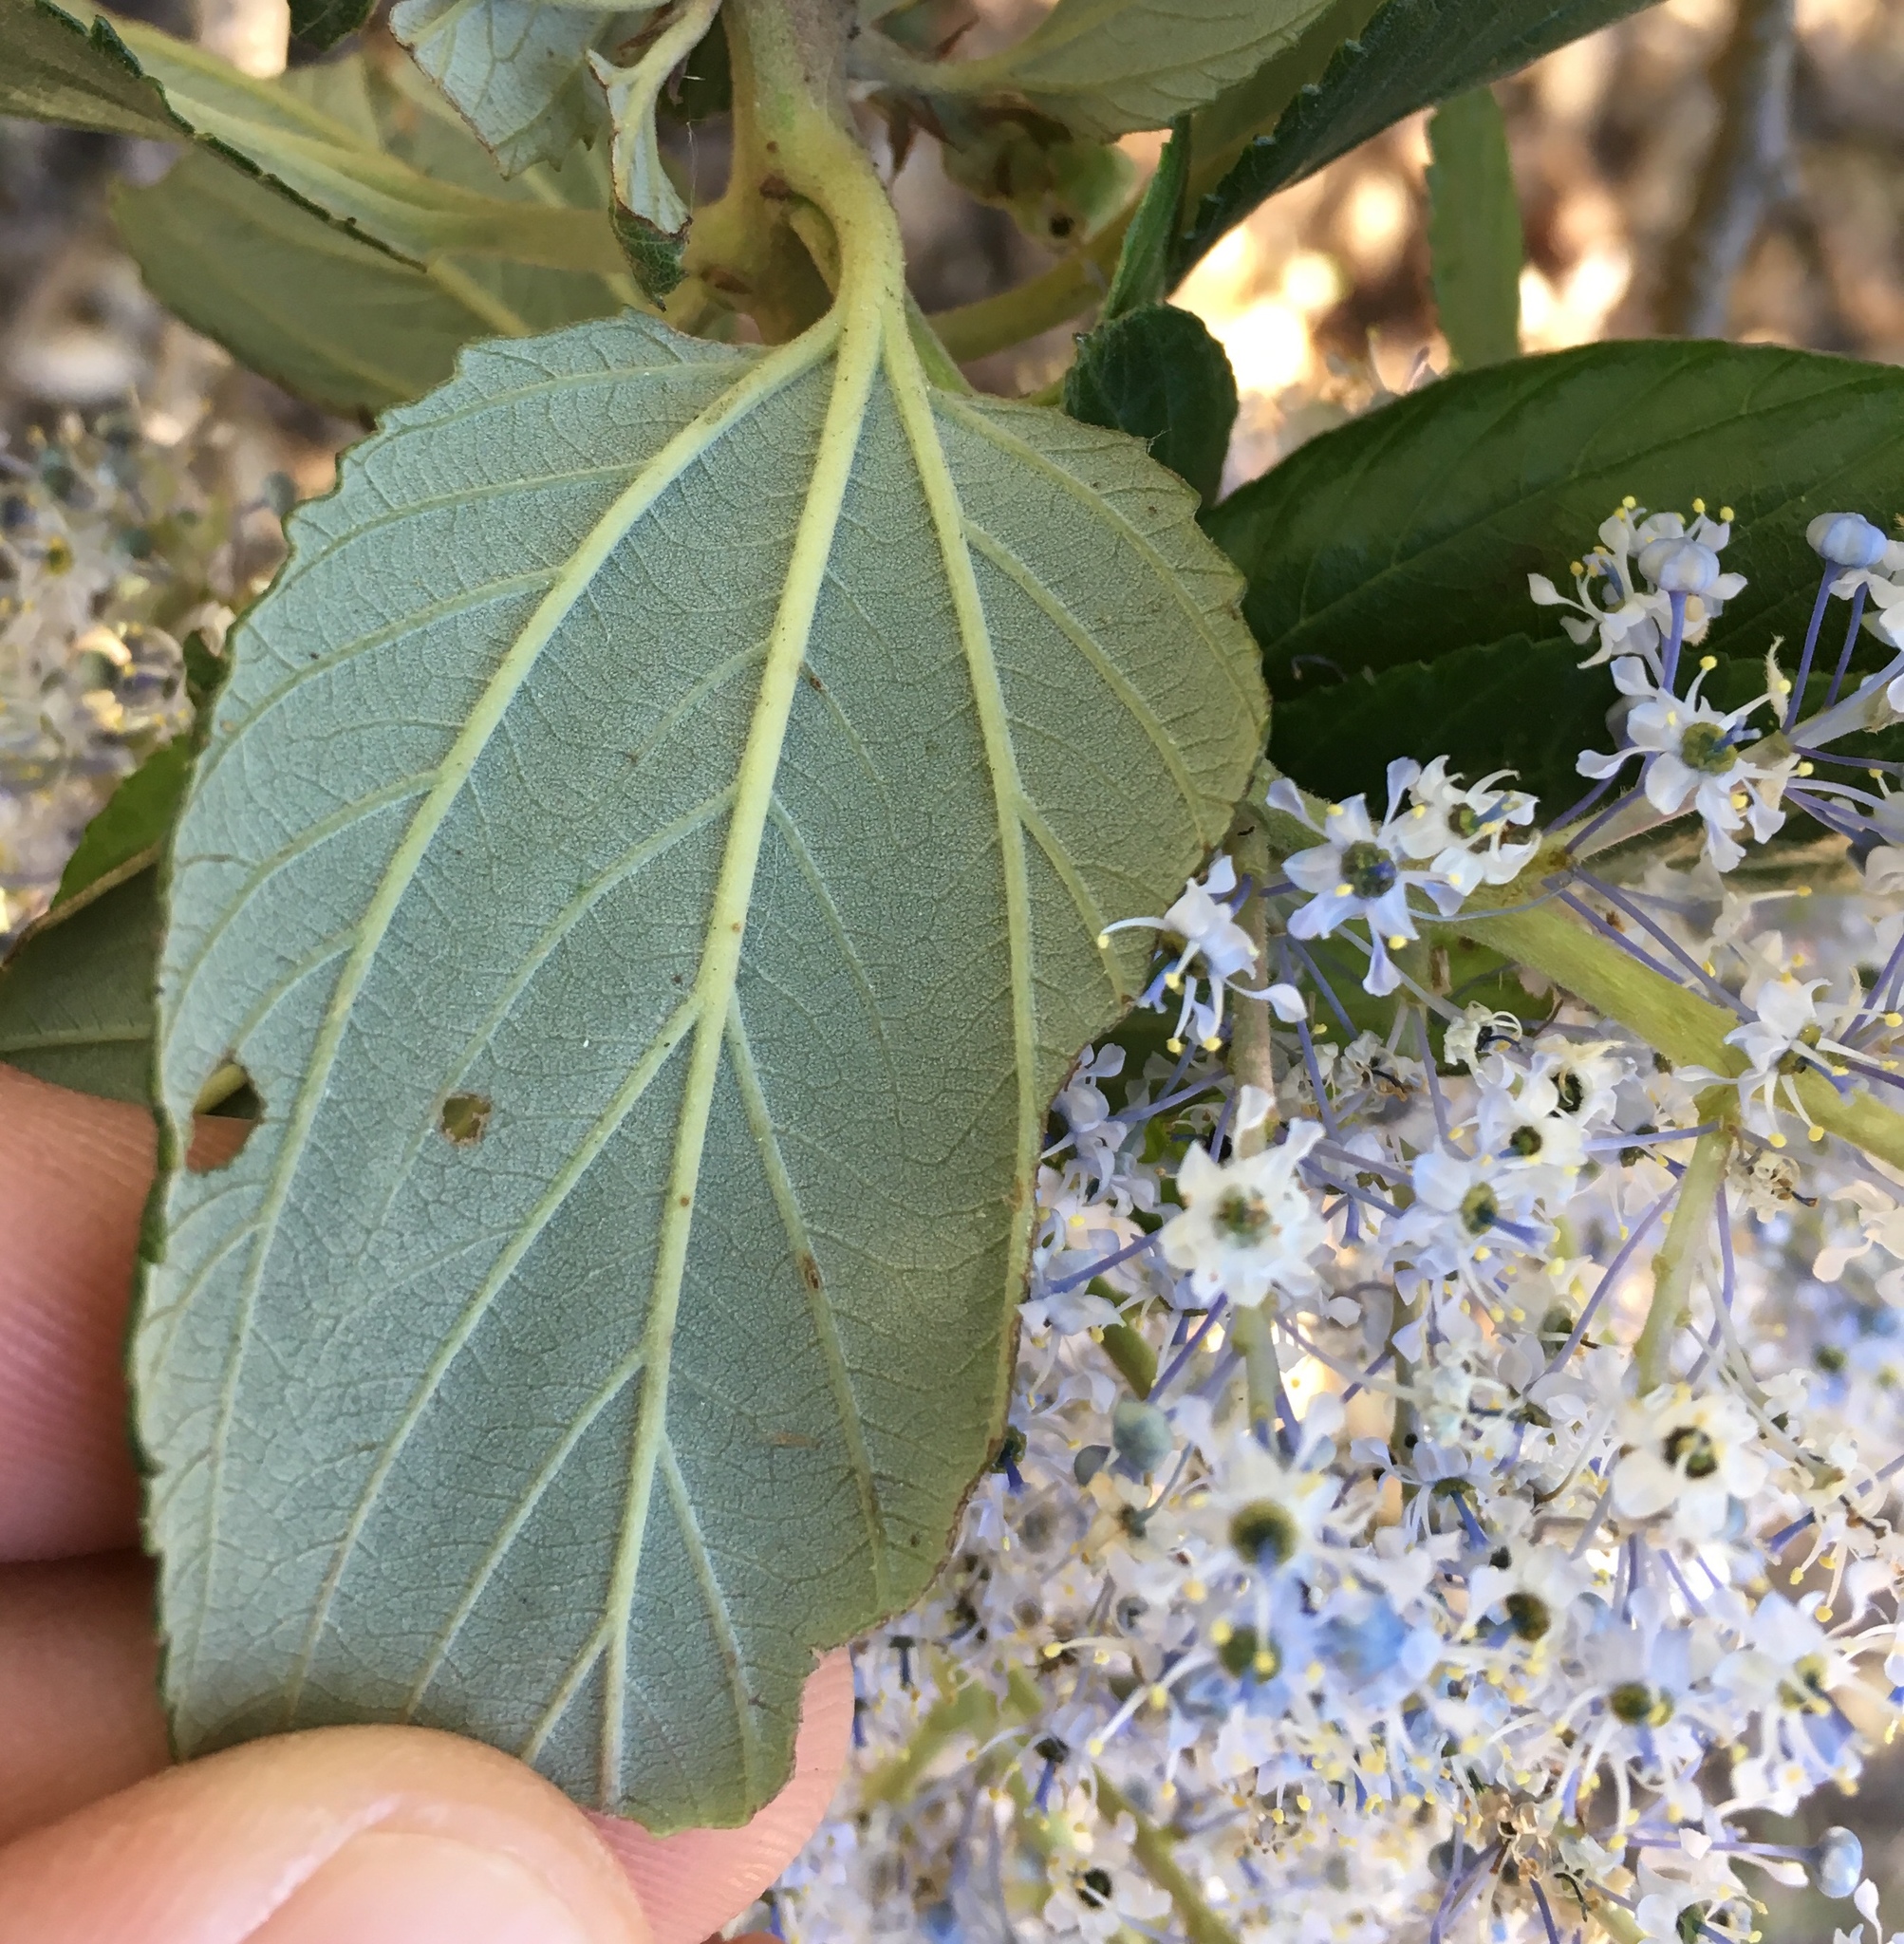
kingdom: Plantae
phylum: Tracheophyta
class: Magnoliopsida
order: Rosales
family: Rhamnaceae
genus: Ceanothus
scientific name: Ceanothus arboreus
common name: Catalina mountain-lilac
